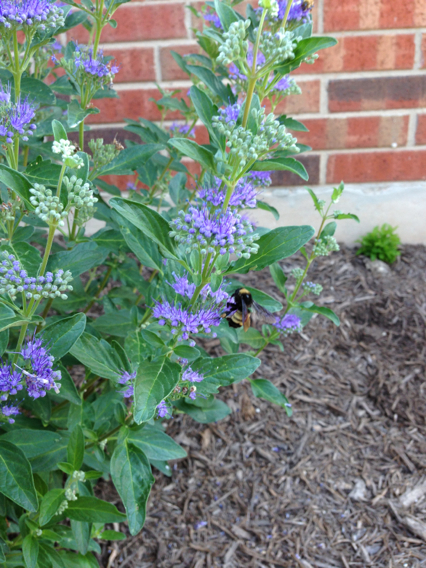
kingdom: Animalia
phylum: Arthropoda
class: Insecta
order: Hymenoptera
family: Apidae
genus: Bombus
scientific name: Bombus pensylvanicus
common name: Bumble bee
